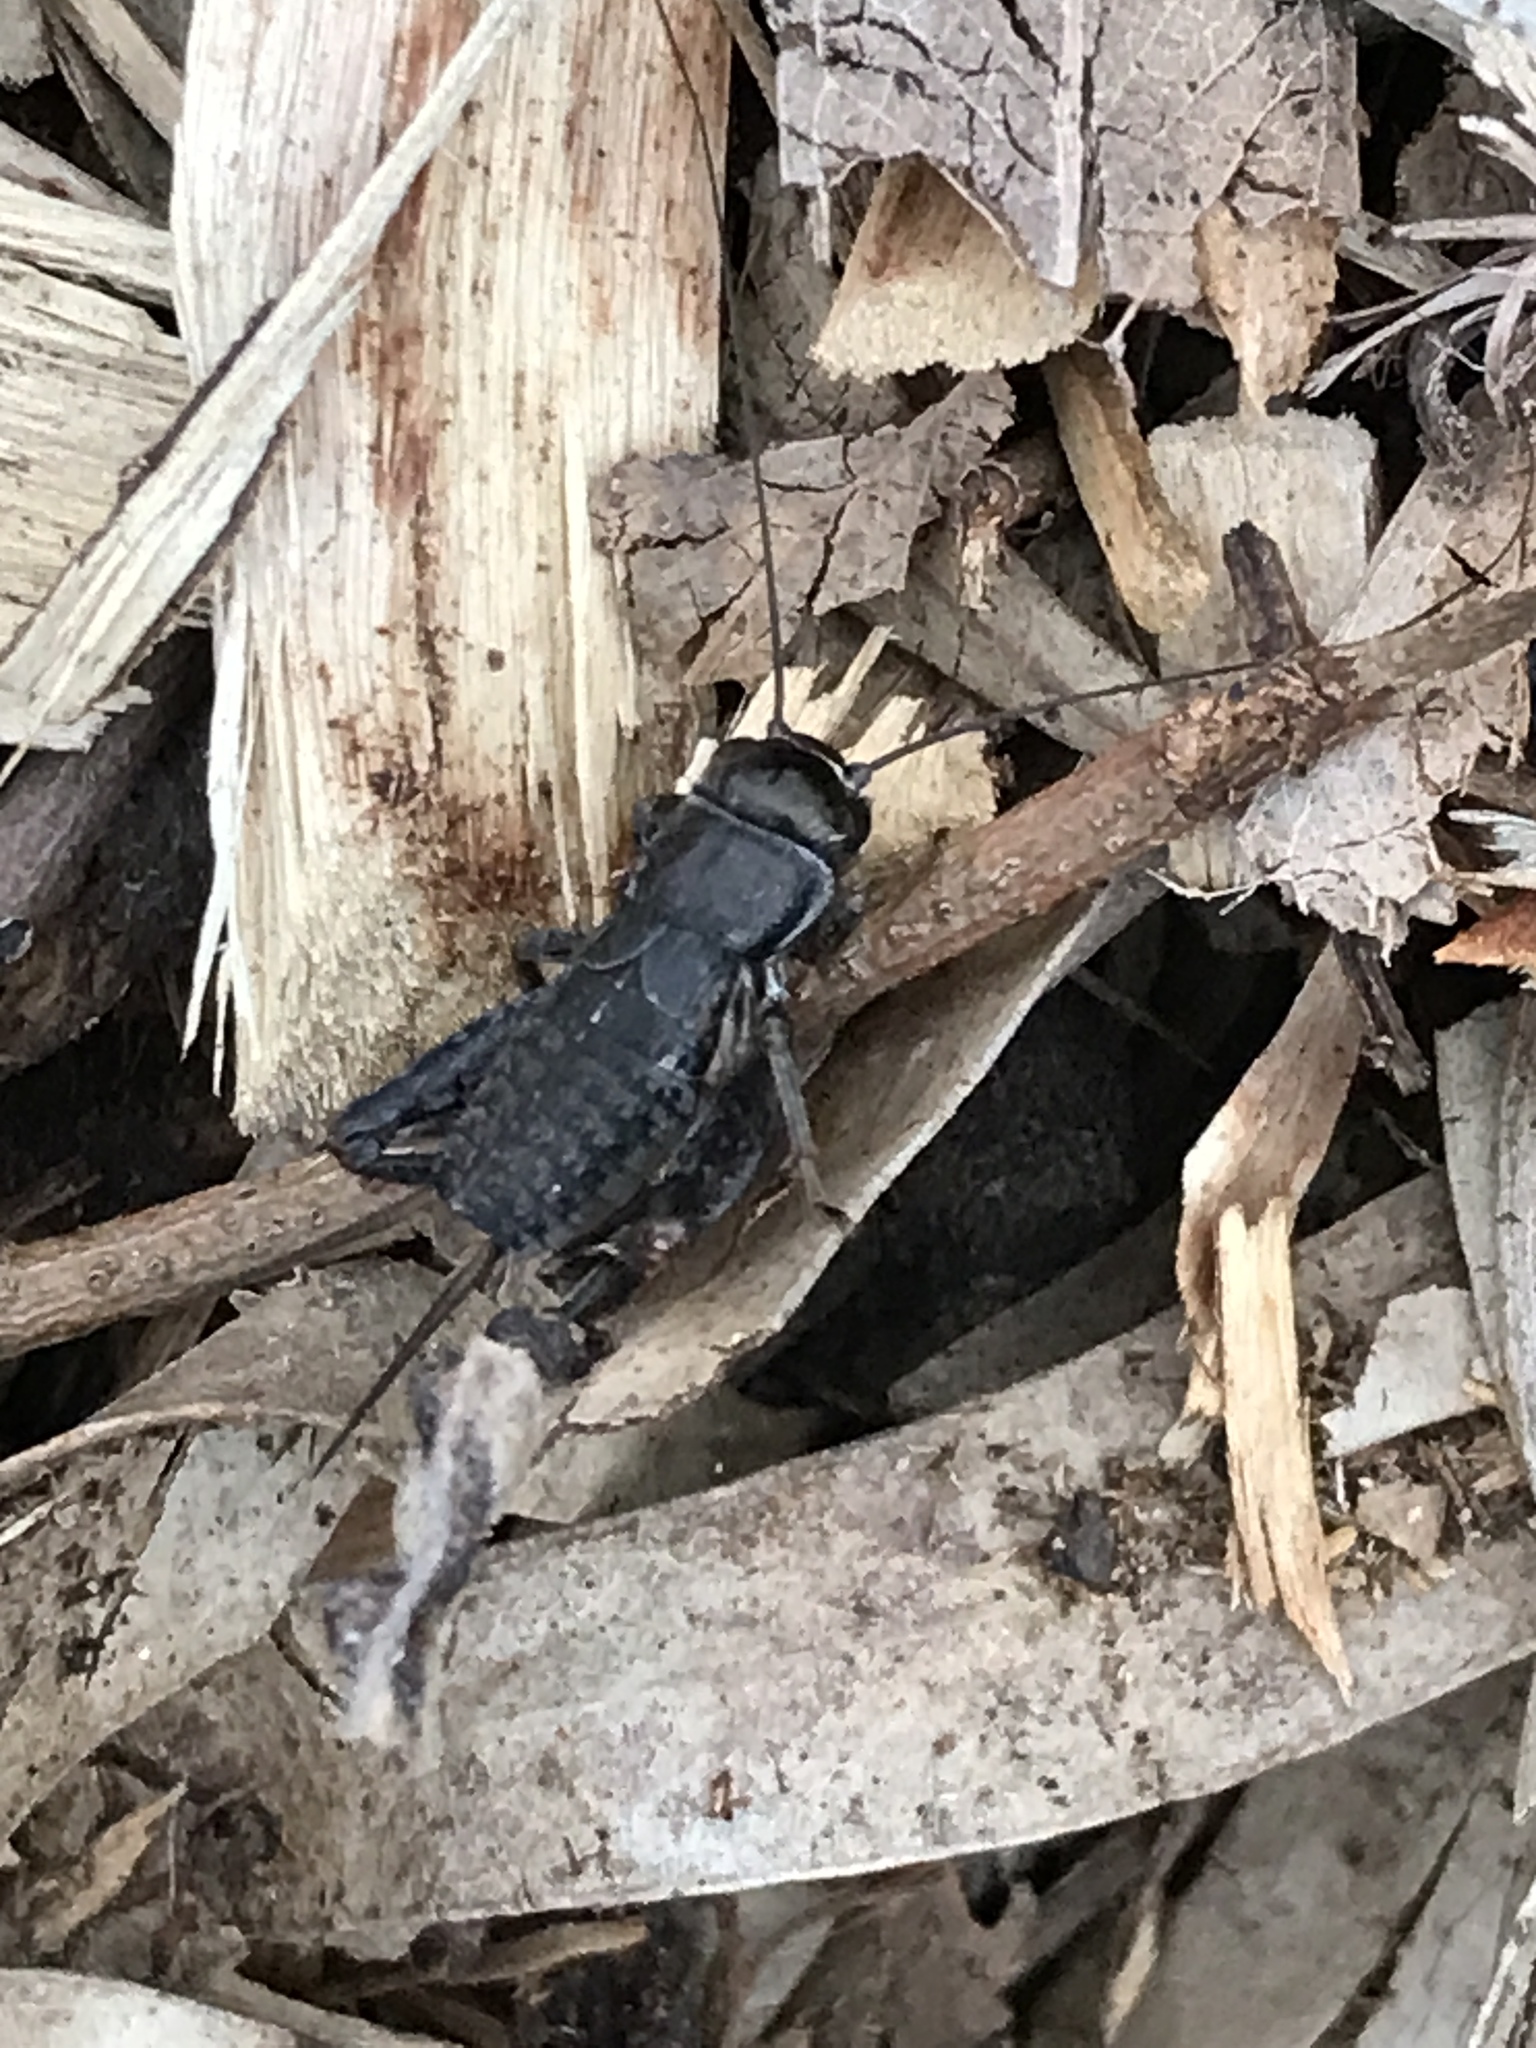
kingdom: Animalia
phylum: Arthropoda
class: Insecta
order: Orthoptera
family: Gryllidae
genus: Teleogryllus
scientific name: Teleogryllus commodus
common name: Black field cricket
